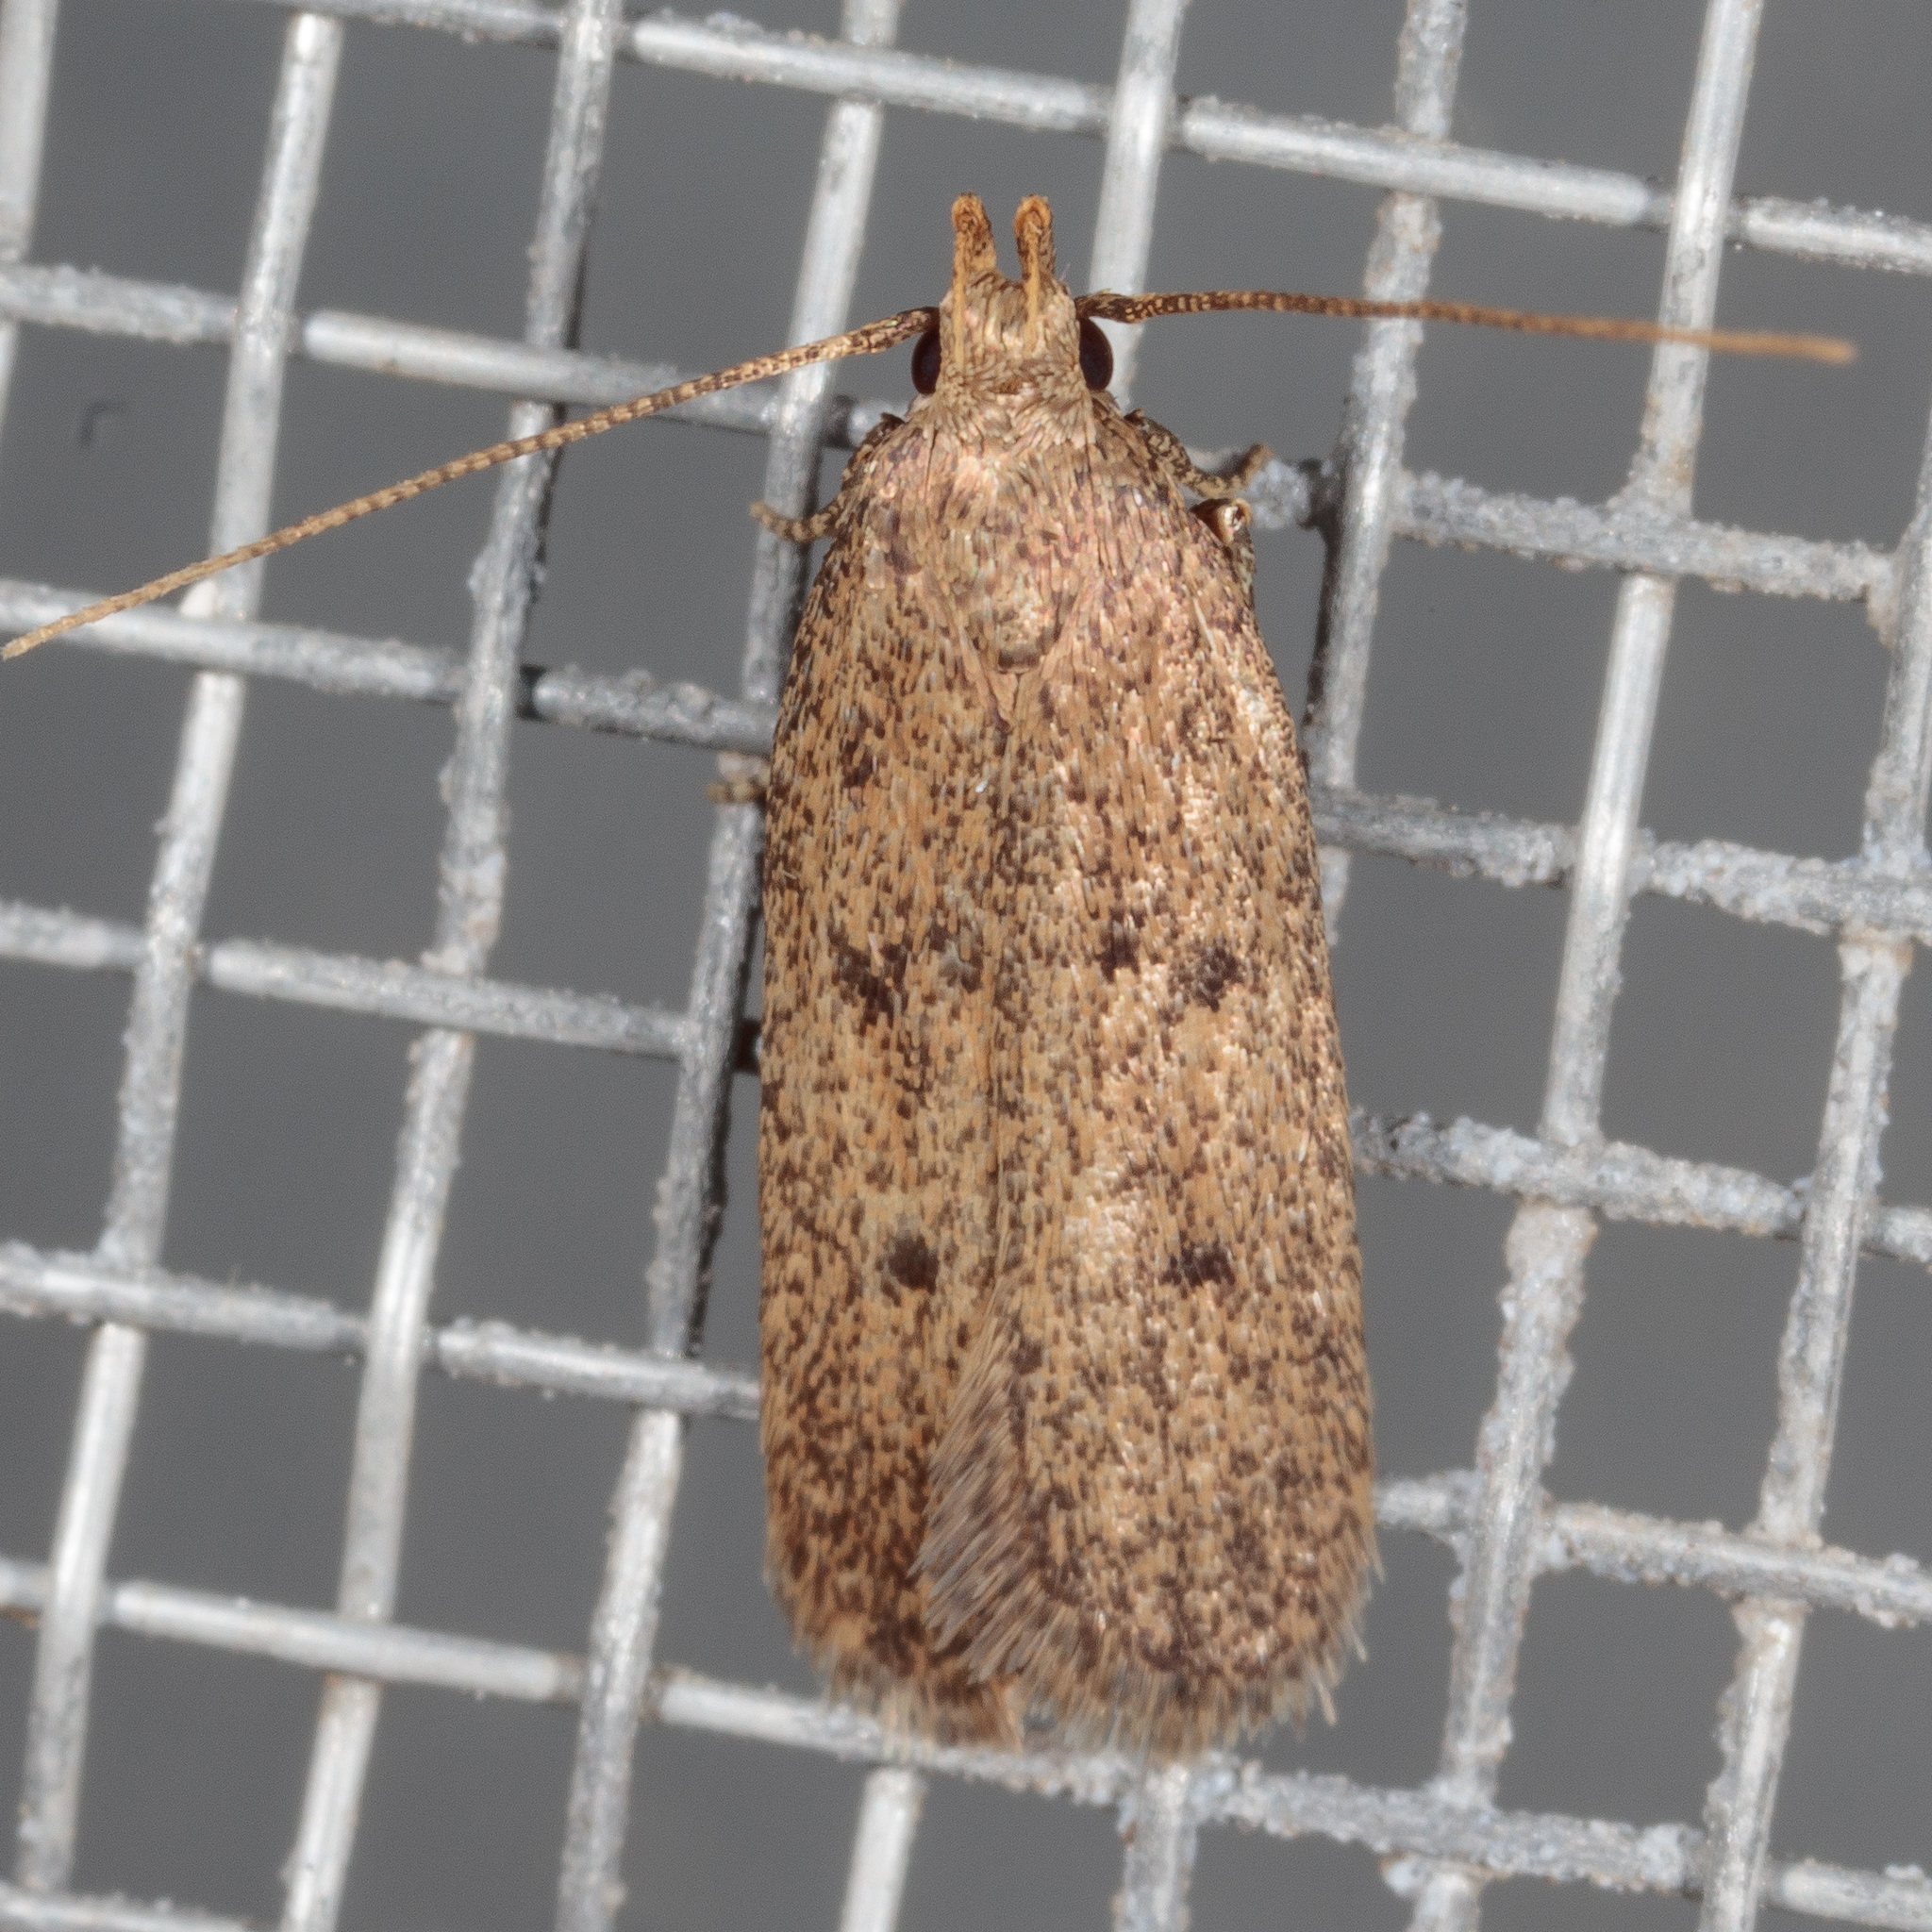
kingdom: Animalia
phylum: Arthropoda
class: Insecta
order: Lepidoptera
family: Autostichidae
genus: Glyphidocera
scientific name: Glyphidocera juniperella
